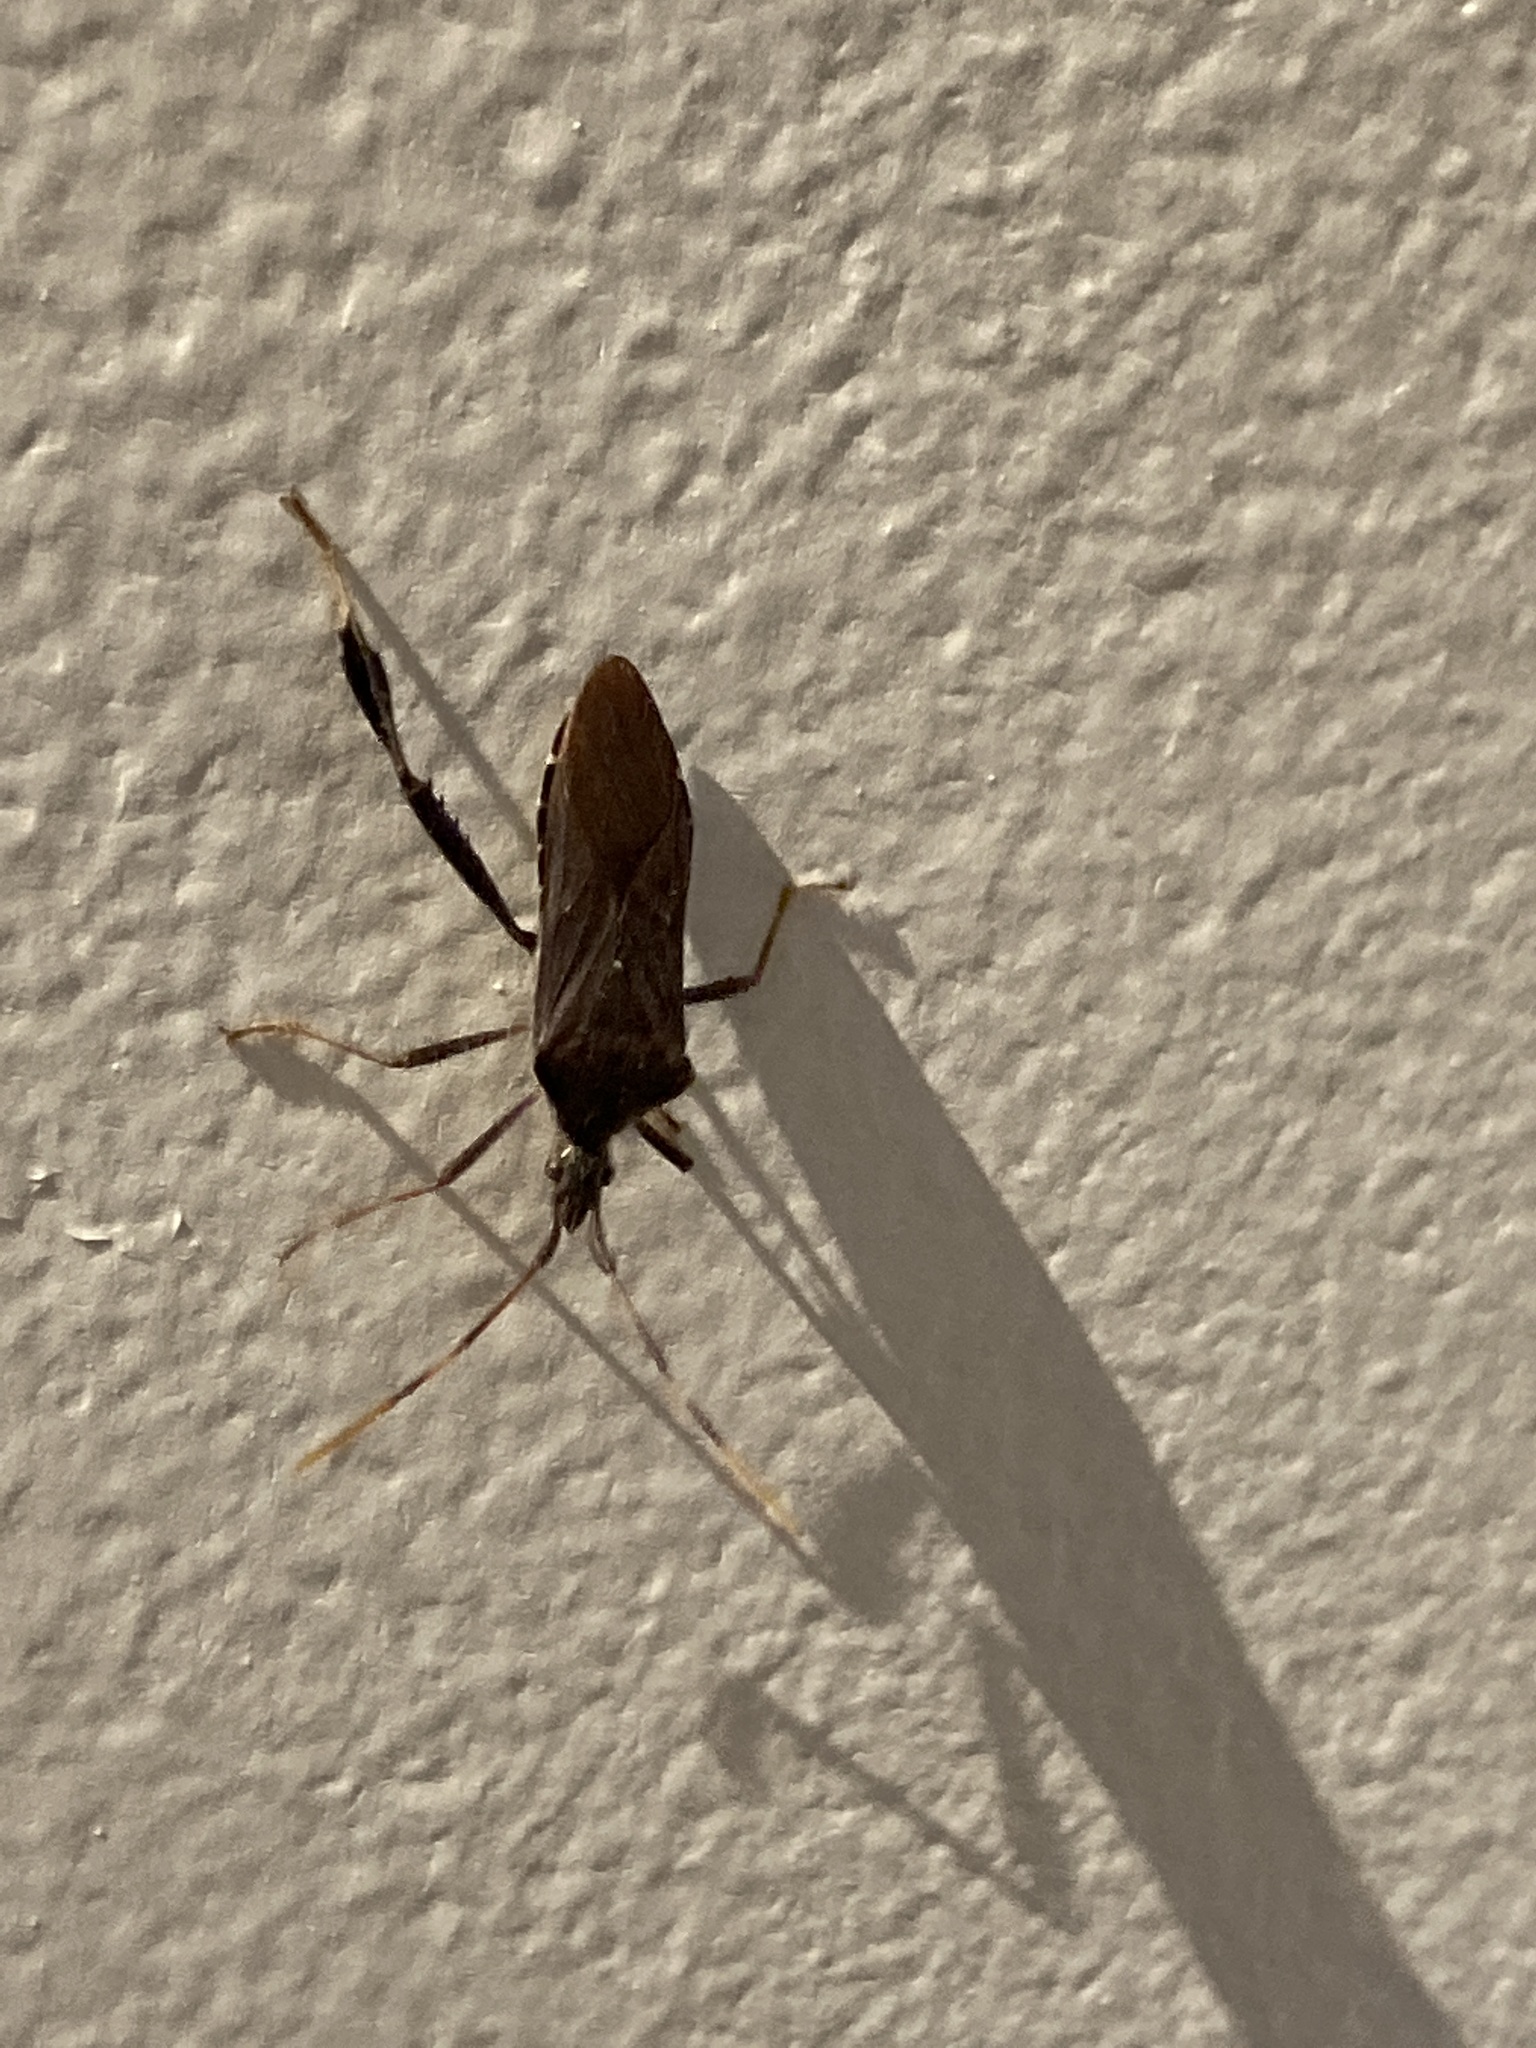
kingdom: Animalia
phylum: Arthropoda
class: Insecta
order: Hemiptera
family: Coreidae
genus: Leptoglossus
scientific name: Leptoglossus oppositus
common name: Northern leaf-footed bug
